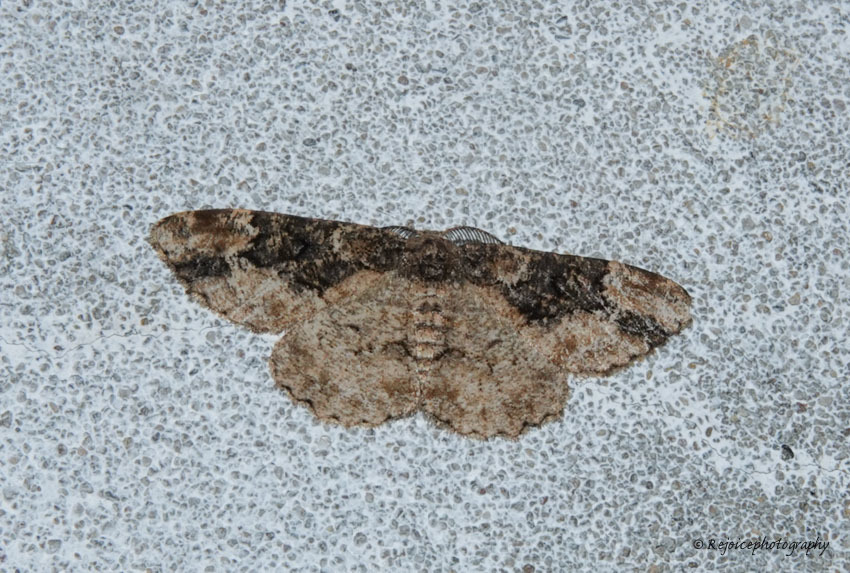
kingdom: Animalia
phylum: Arthropoda
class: Insecta
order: Lepidoptera
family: Geometridae
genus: Parapholodes
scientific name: Parapholodes
